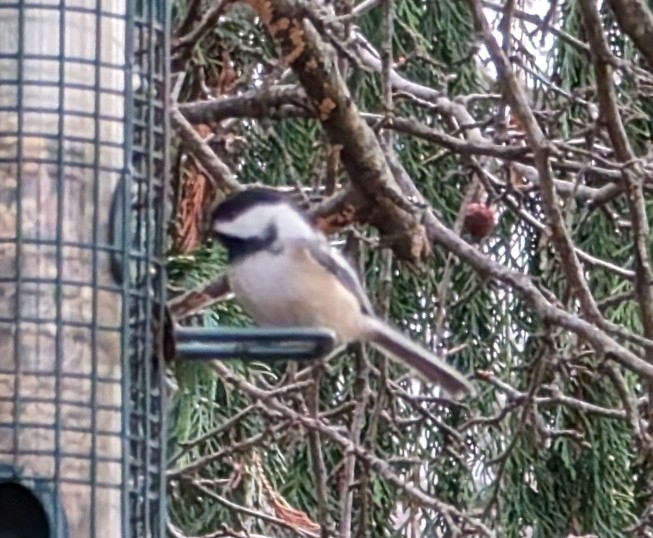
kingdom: Animalia
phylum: Chordata
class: Aves
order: Passeriformes
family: Paridae
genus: Poecile
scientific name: Poecile atricapillus
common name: Black-capped chickadee
